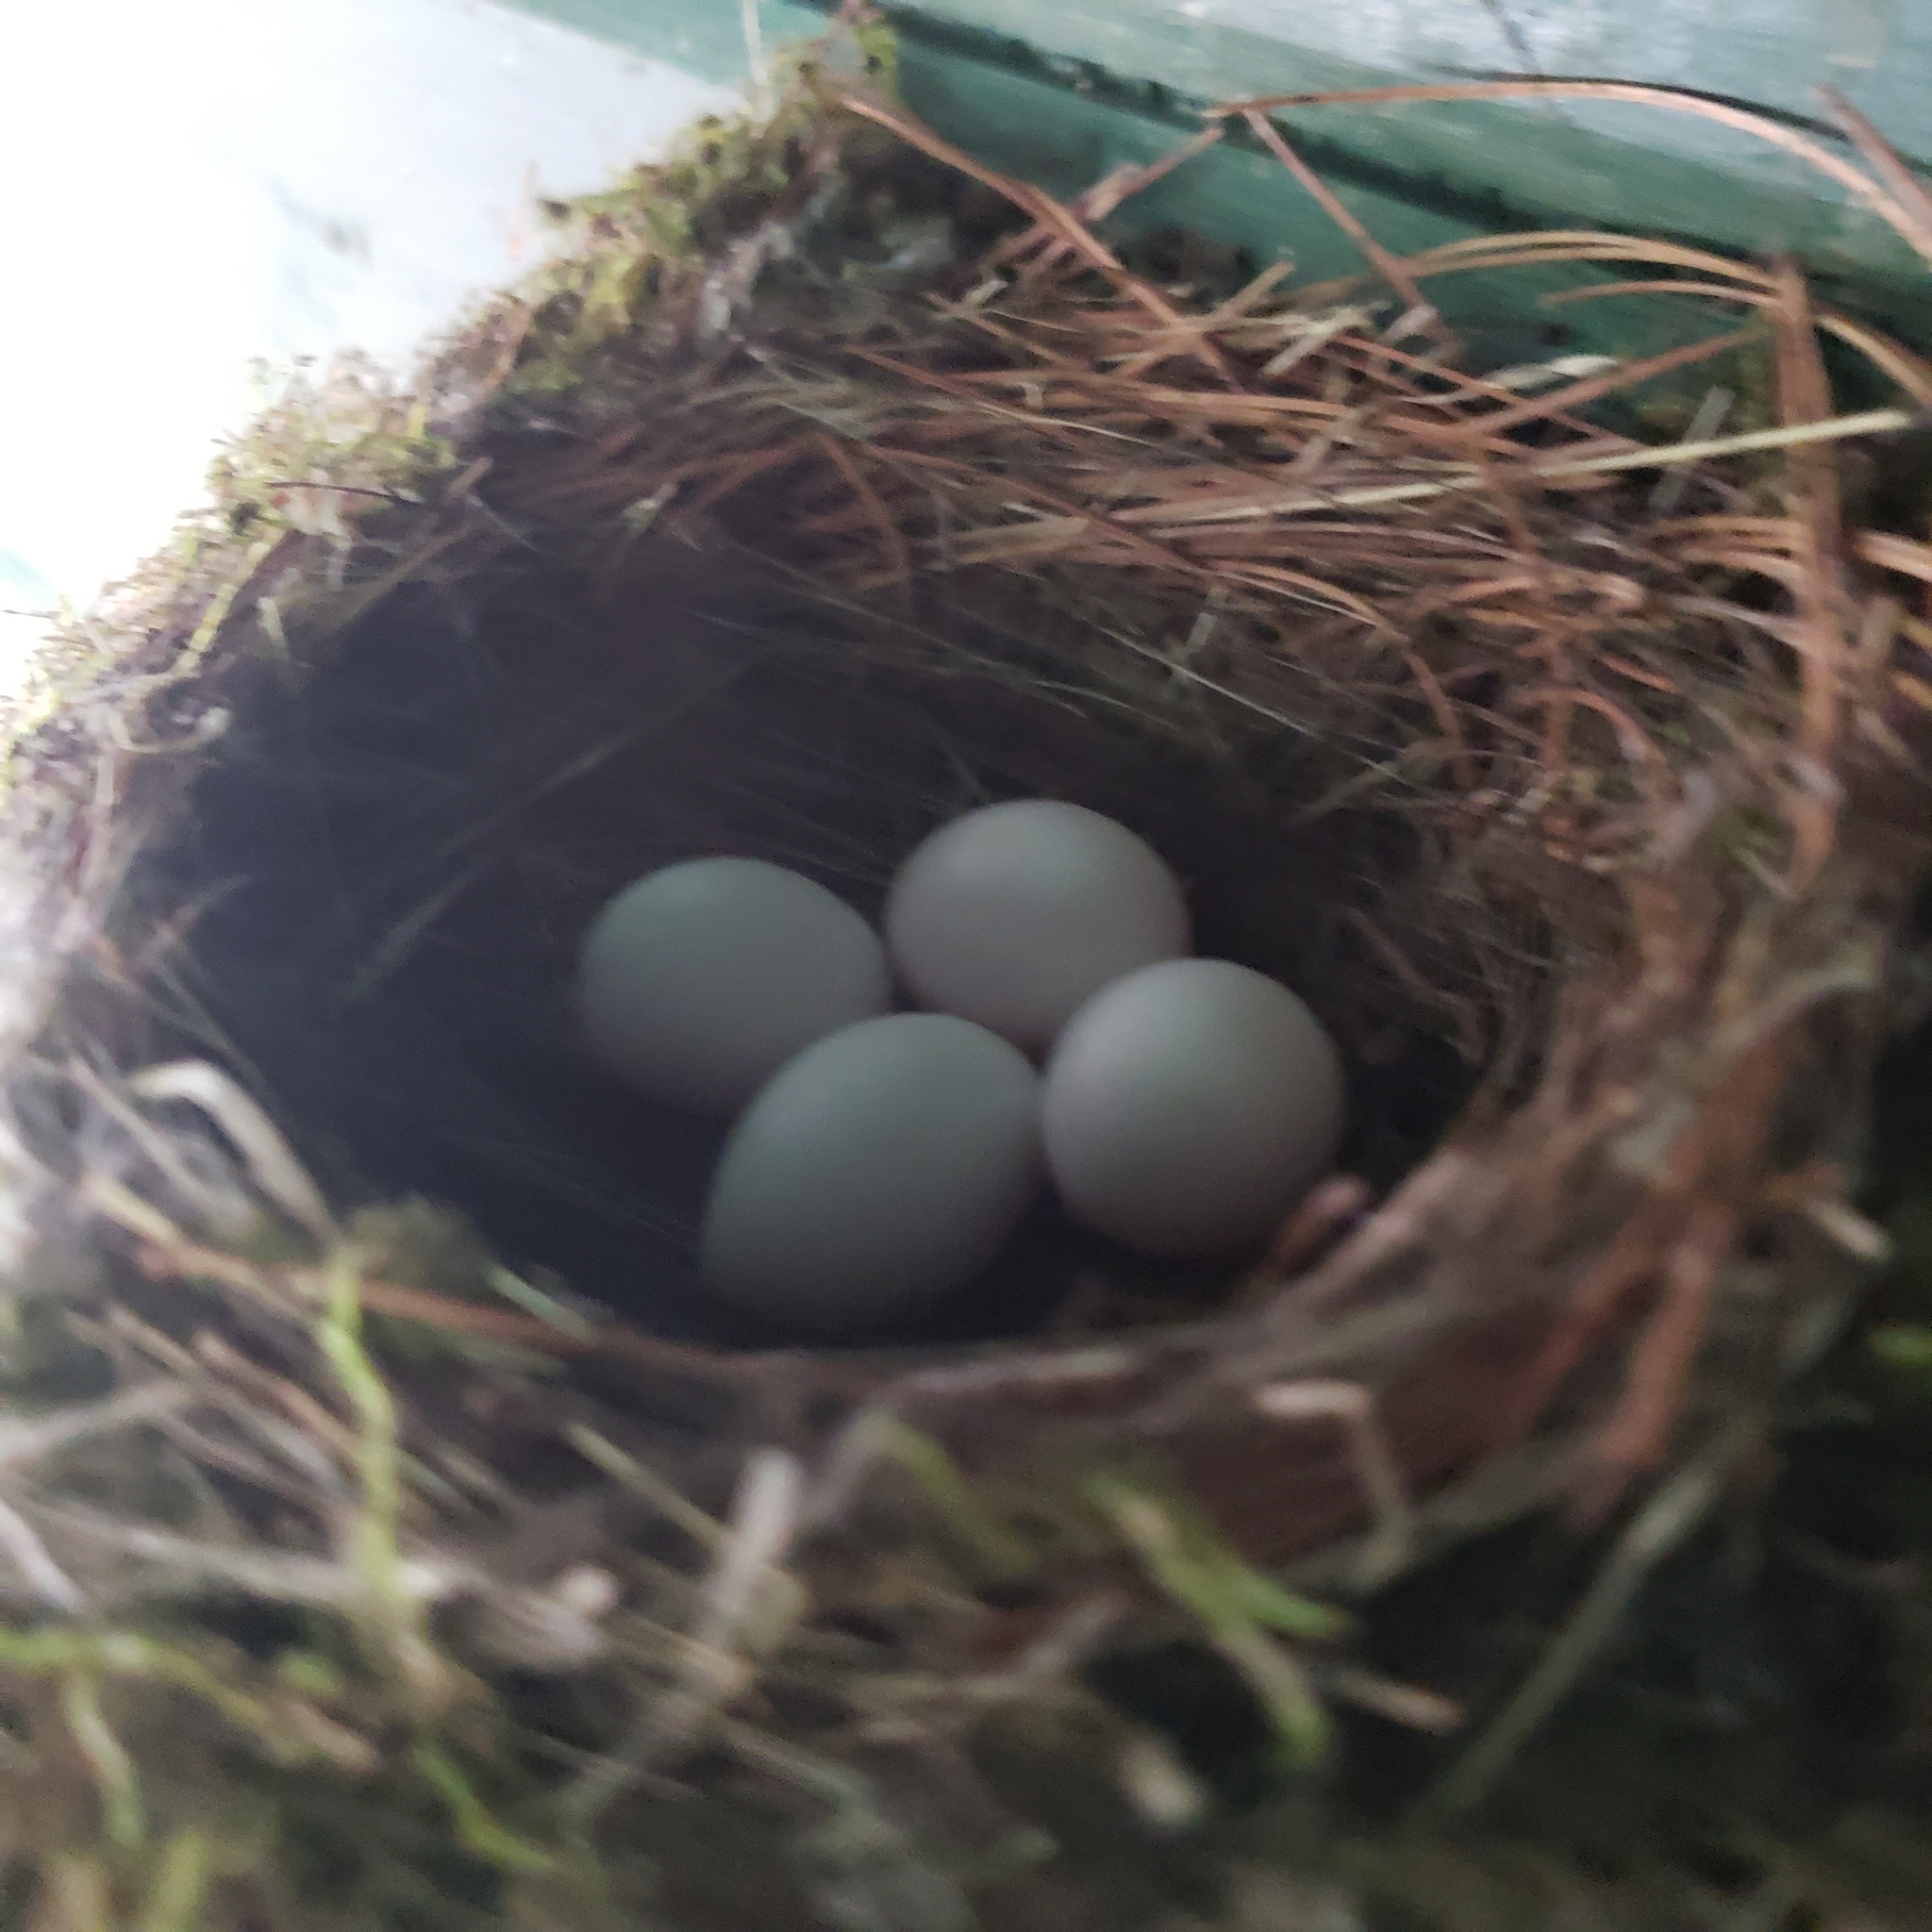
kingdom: Animalia
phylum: Chordata
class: Aves
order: Passeriformes
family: Tyrannidae
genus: Sayornis
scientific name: Sayornis phoebe
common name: Eastern phoebe
